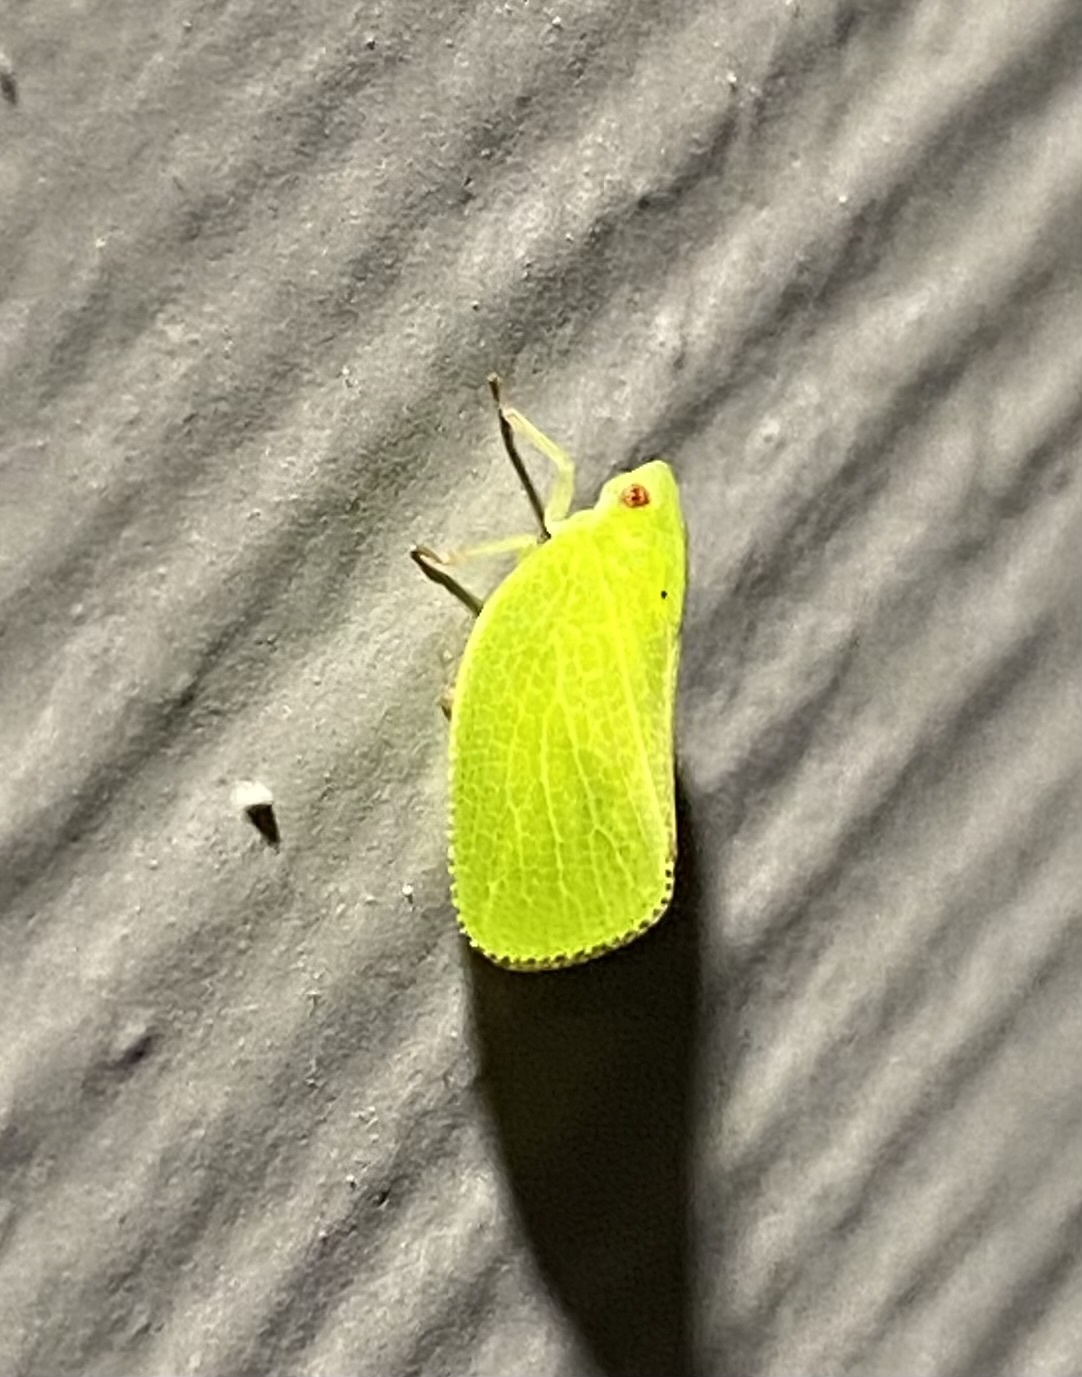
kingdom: Animalia
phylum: Arthropoda
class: Insecta
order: Hemiptera
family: Acanaloniidae
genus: Acanalonia
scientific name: Acanalonia conica
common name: Green cone-headed planthopper
